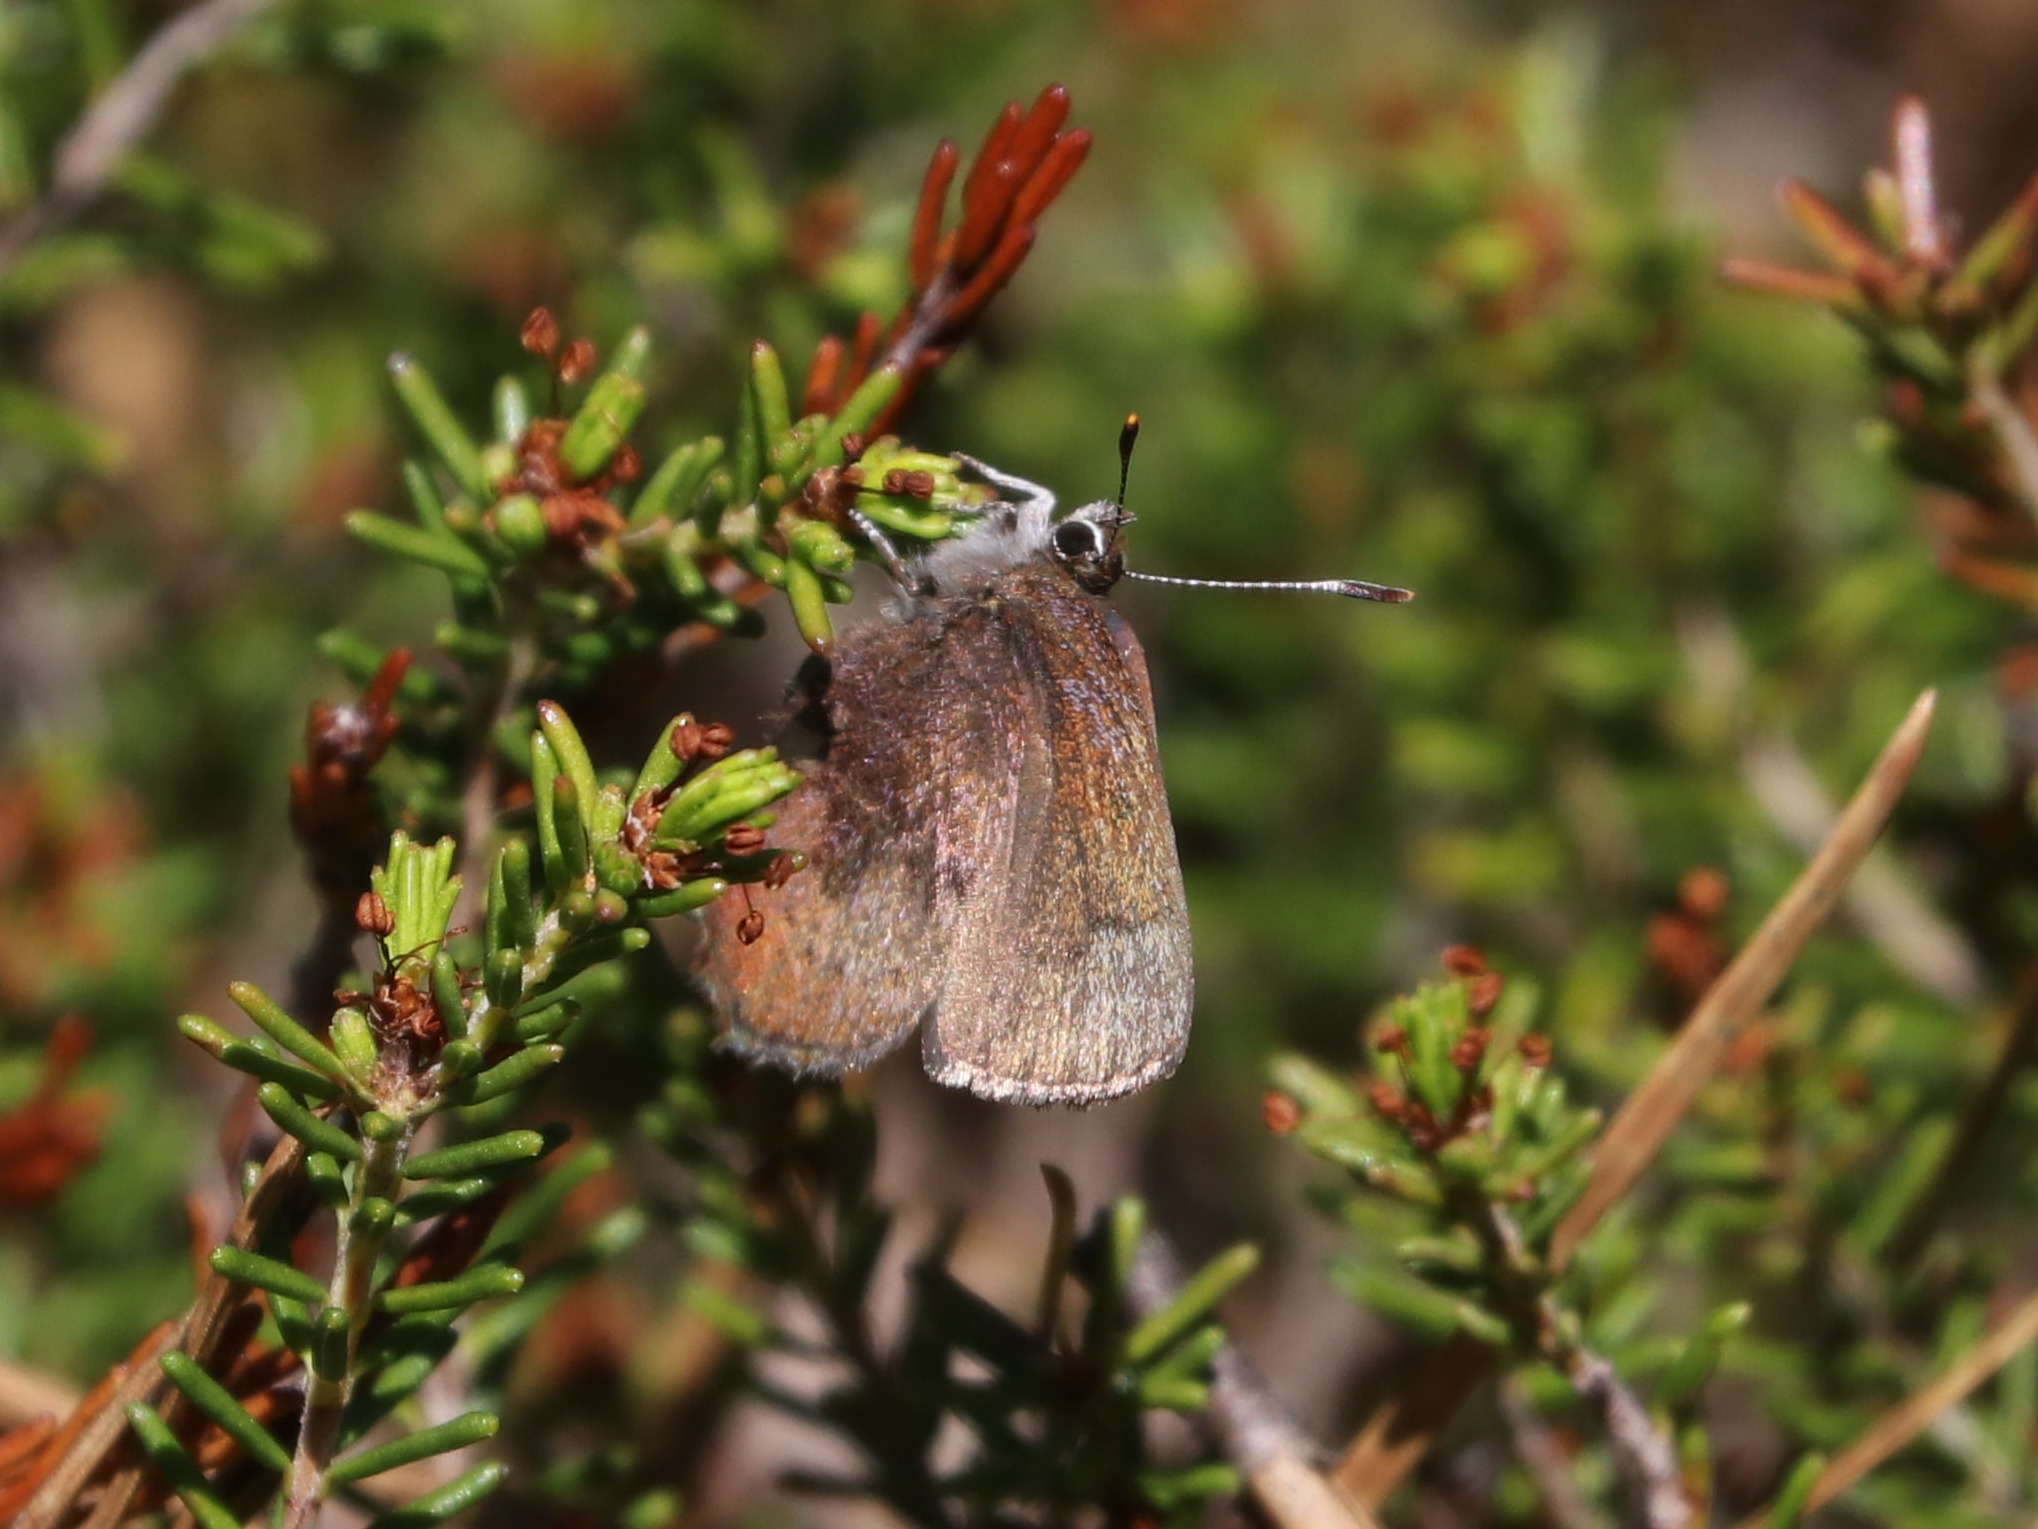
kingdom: Animalia
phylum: Arthropoda
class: Insecta
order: Lepidoptera
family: Lycaenidae
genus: Incisalia
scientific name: Incisalia irioides
